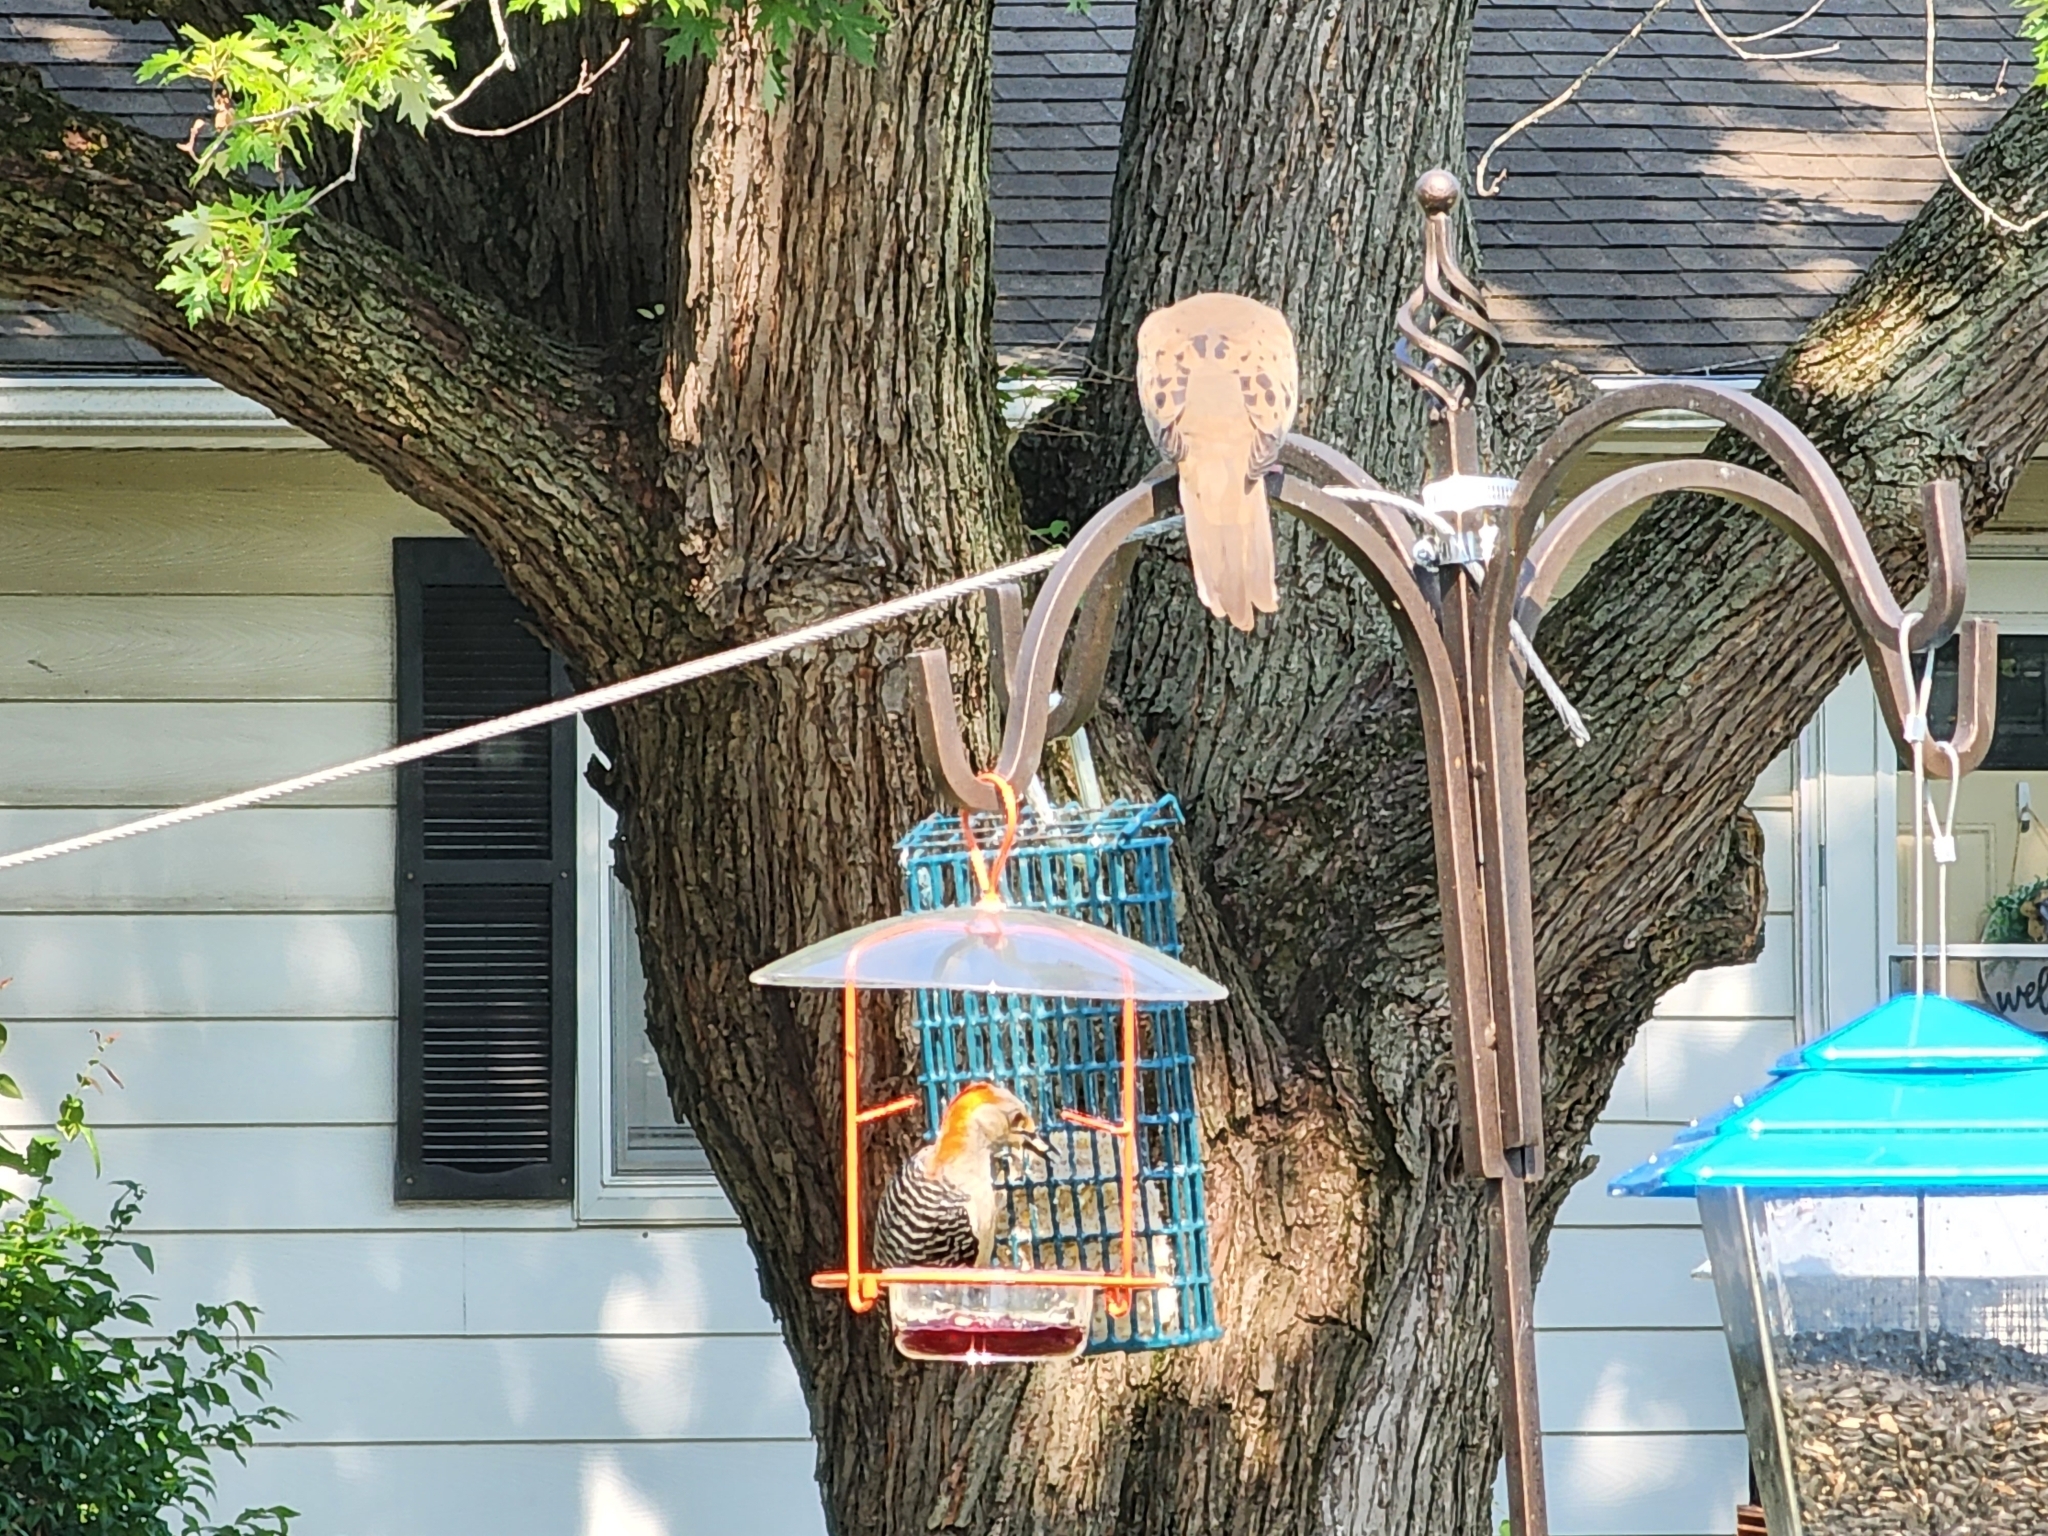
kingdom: Animalia
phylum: Chordata
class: Aves
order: Columbiformes
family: Columbidae
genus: Zenaida
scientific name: Zenaida macroura
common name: Mourning dove
